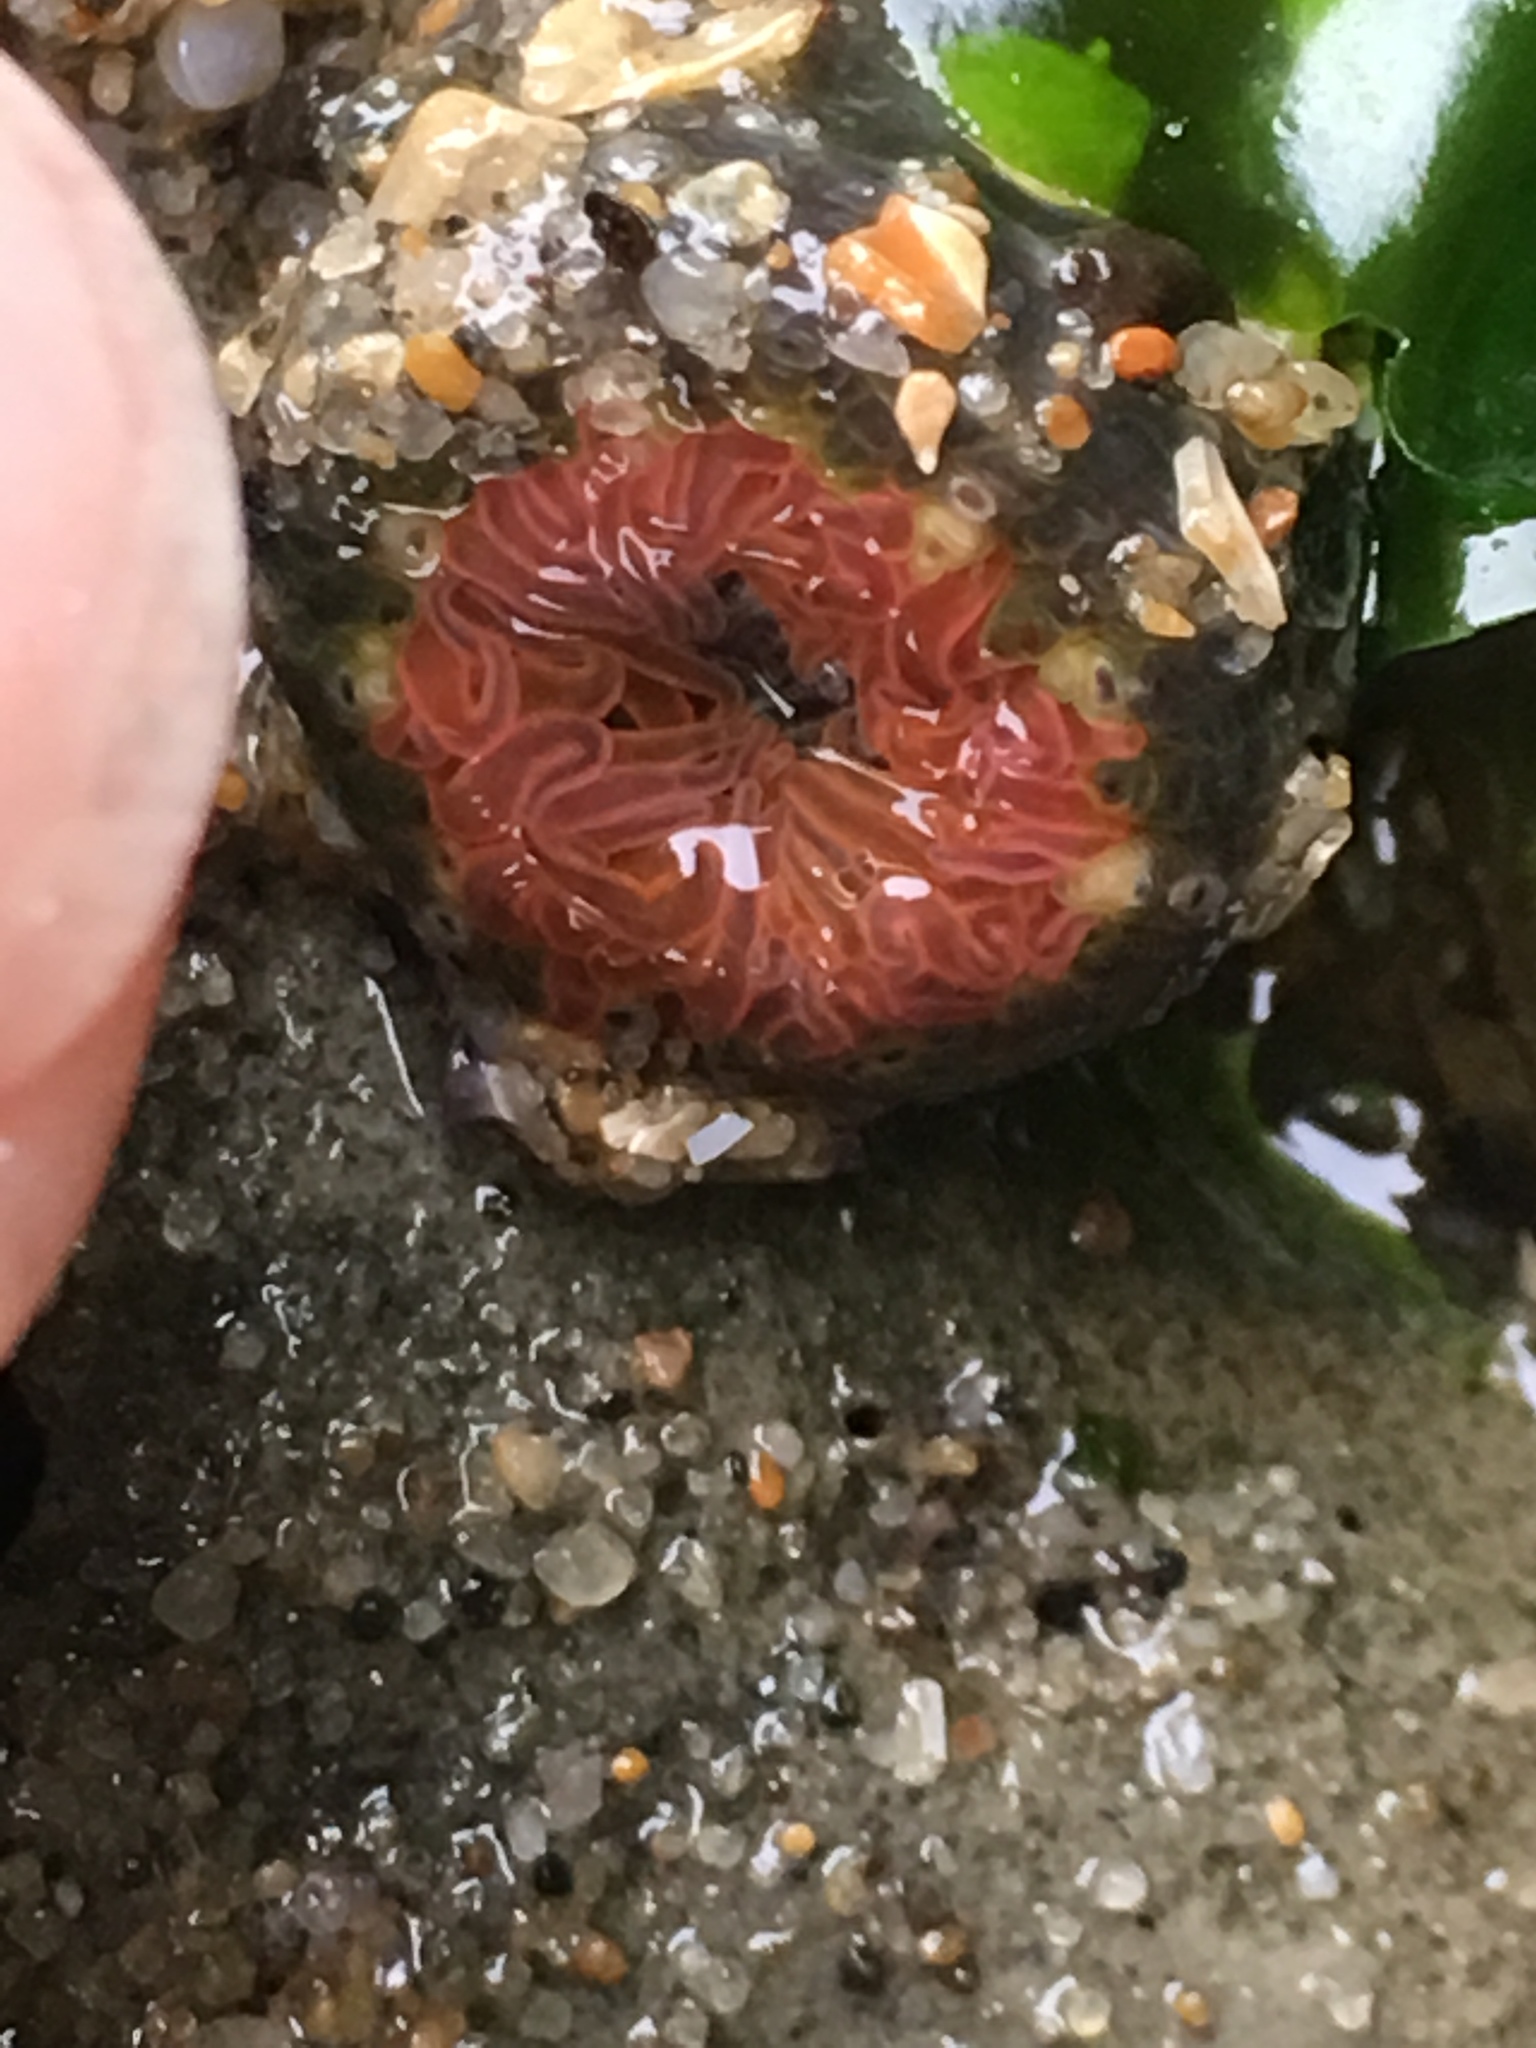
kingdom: Animalia
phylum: Cnidaria
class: Anthozoa
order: Actiniaria
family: Actiniidae
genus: Anthopleura
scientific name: Anthopleura artemisia
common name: Buried sea anemone
